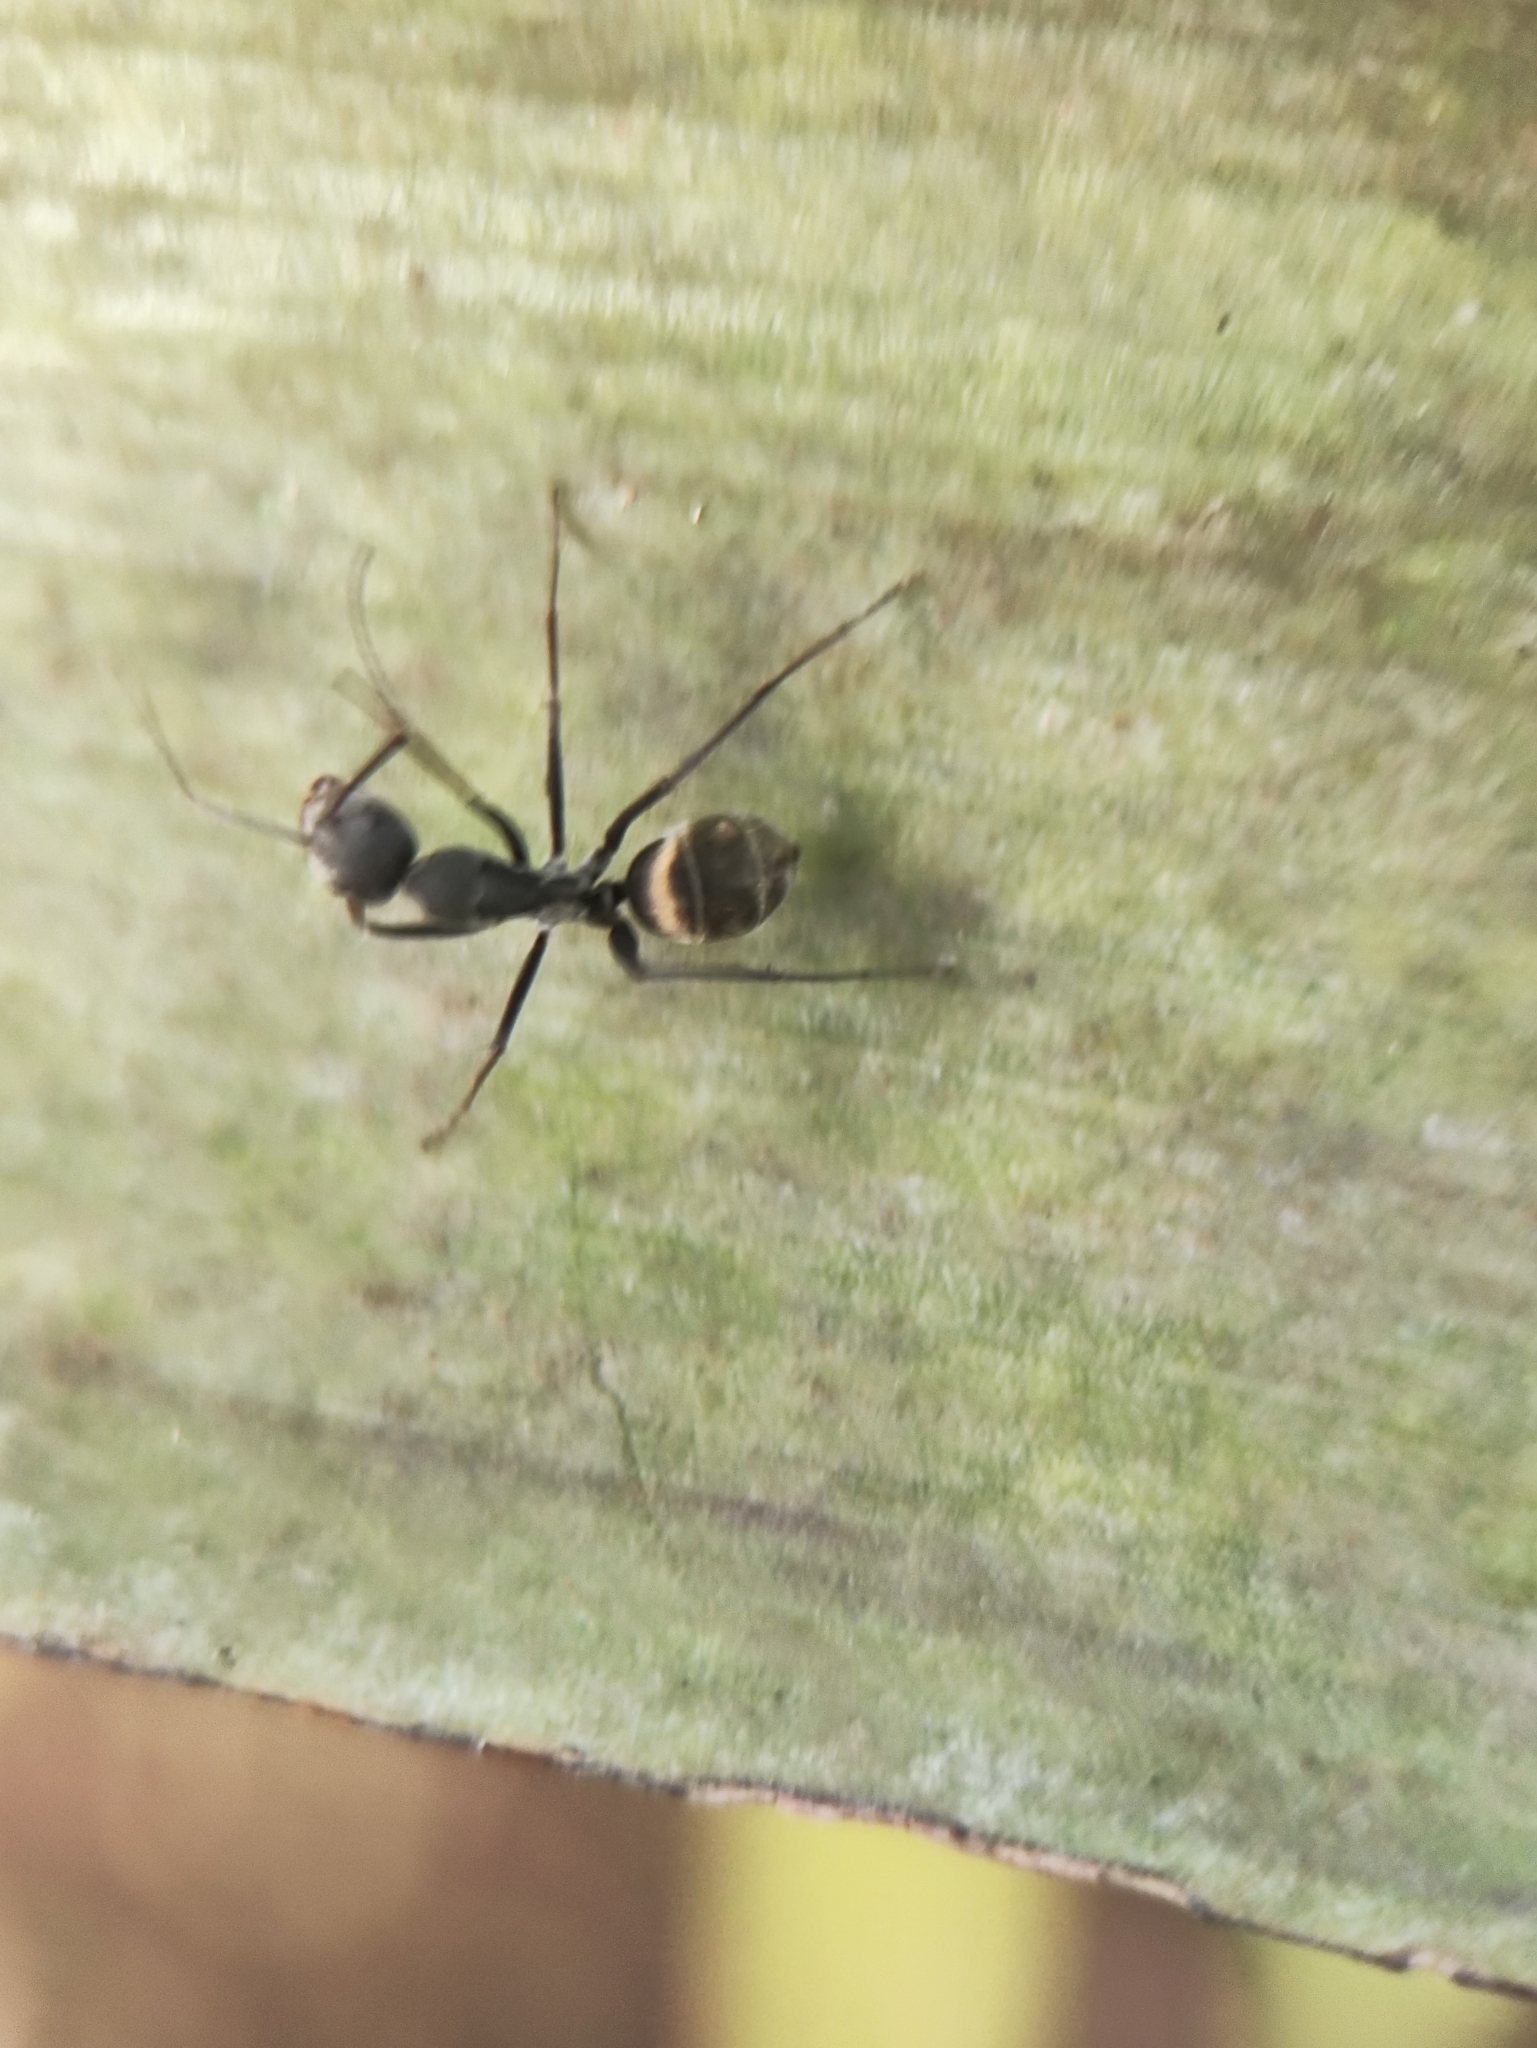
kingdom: Animalia
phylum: Arthropoda
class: Insecta
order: Hymenoptera
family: Formicidae
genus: Camponotus
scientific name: Camponotus parius
